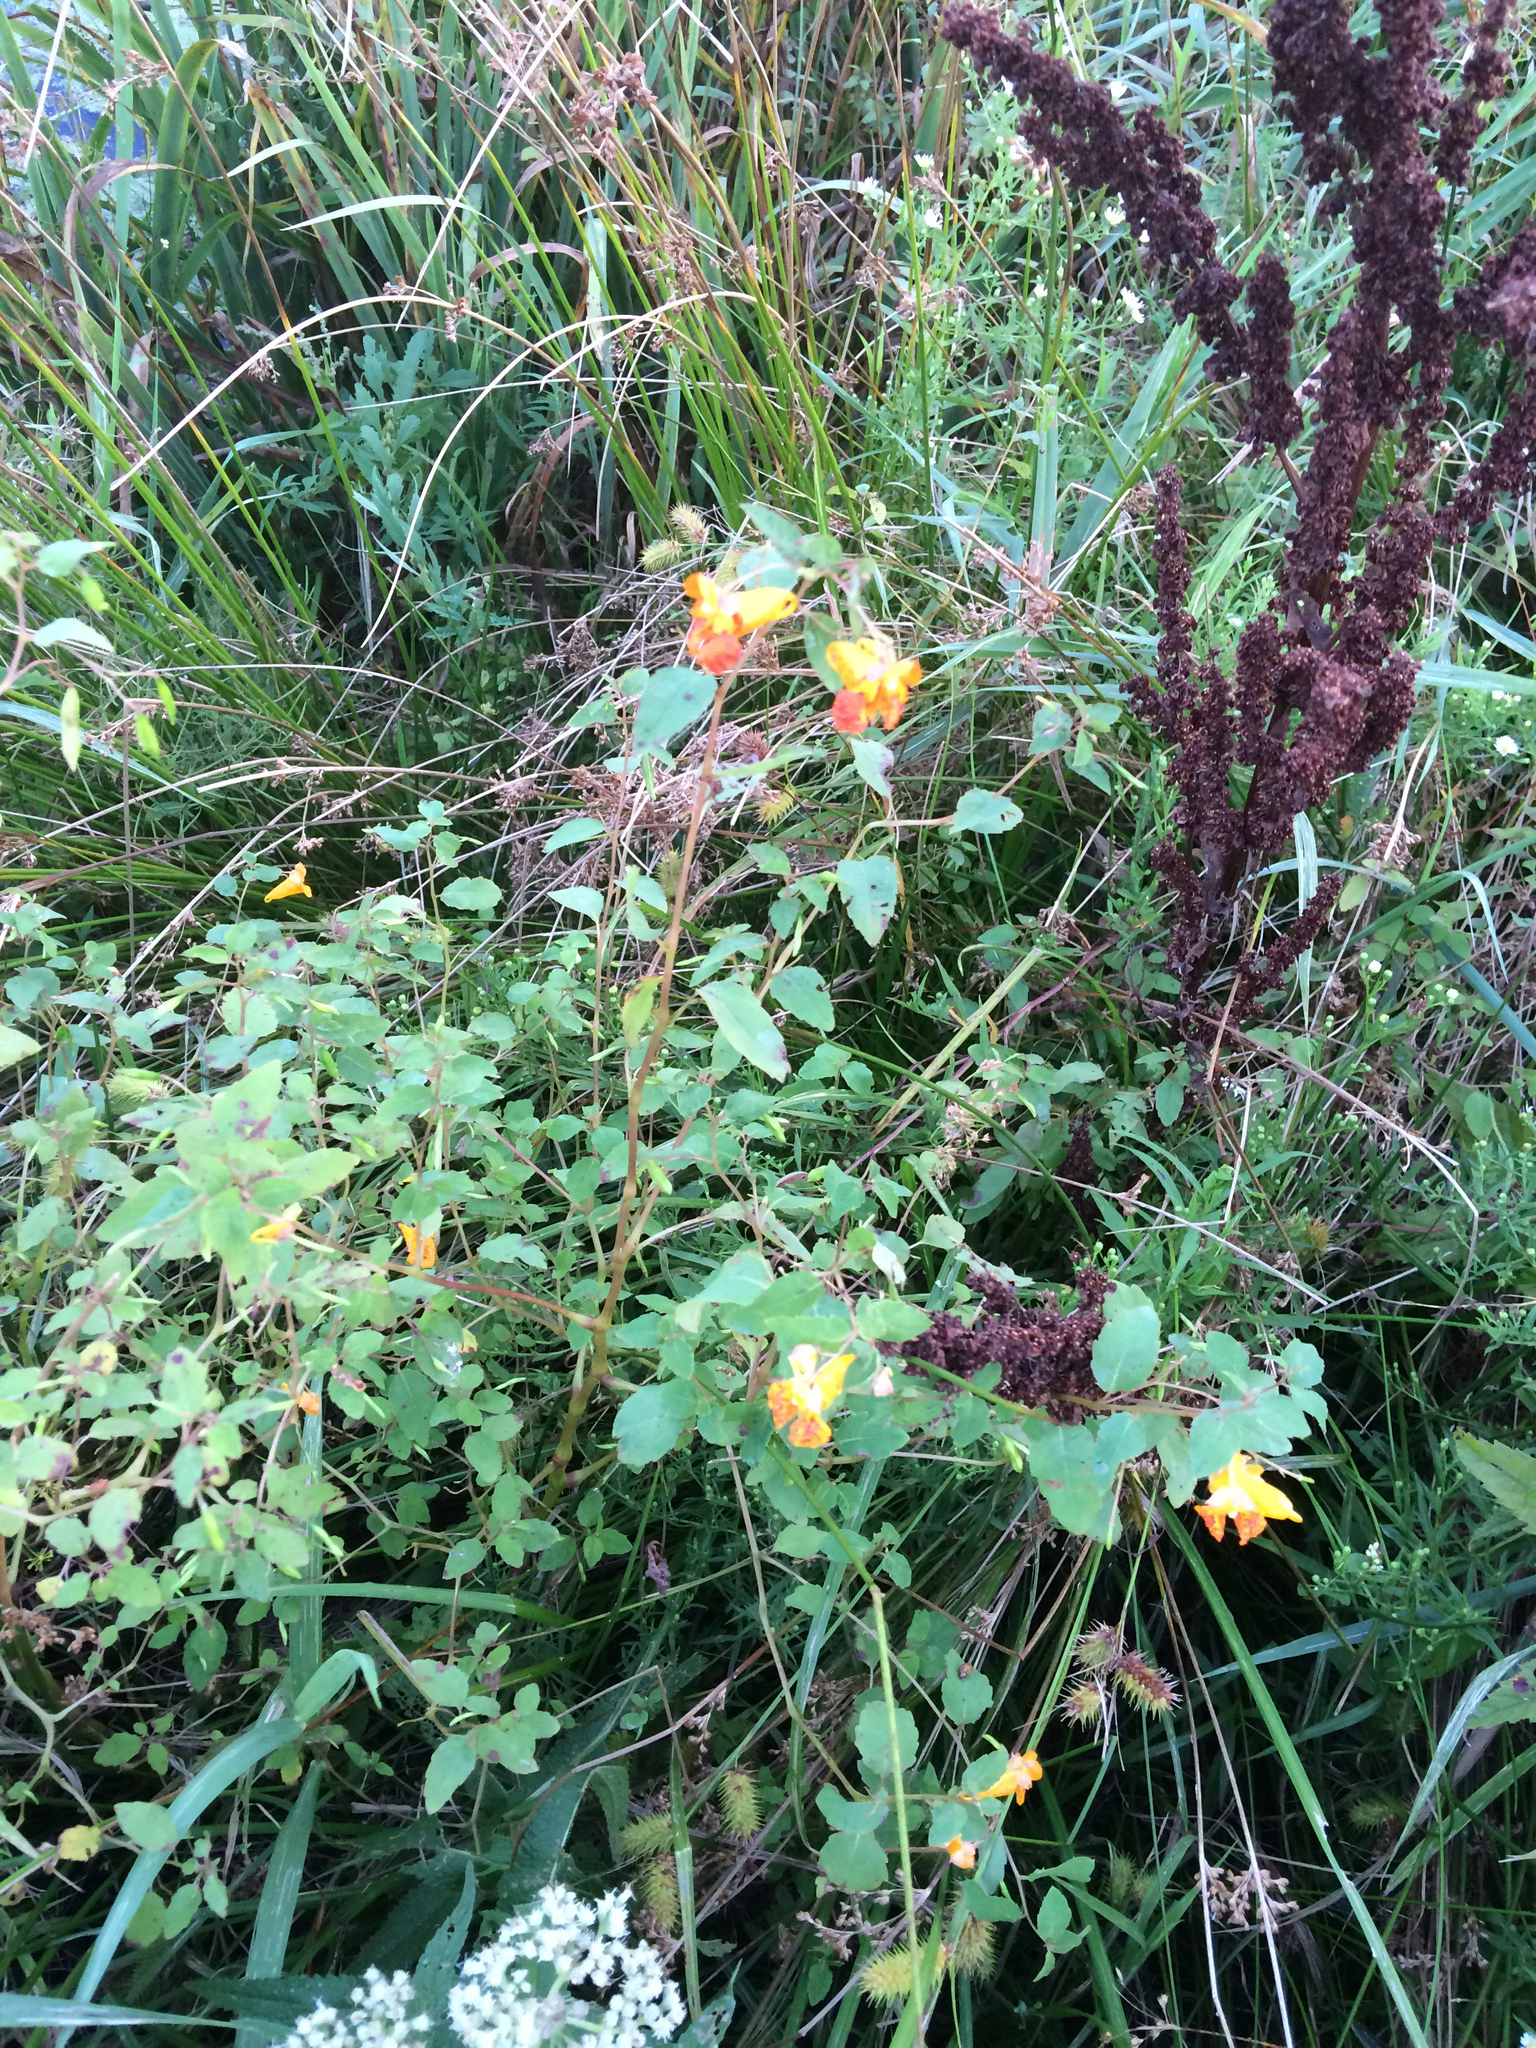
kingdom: Plantae
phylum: Tracheophyta
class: Magnoliopsida
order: Ericales
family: Balsaminaceae
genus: Impatiens
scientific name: Impatiens capensis
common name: Orange balsam
